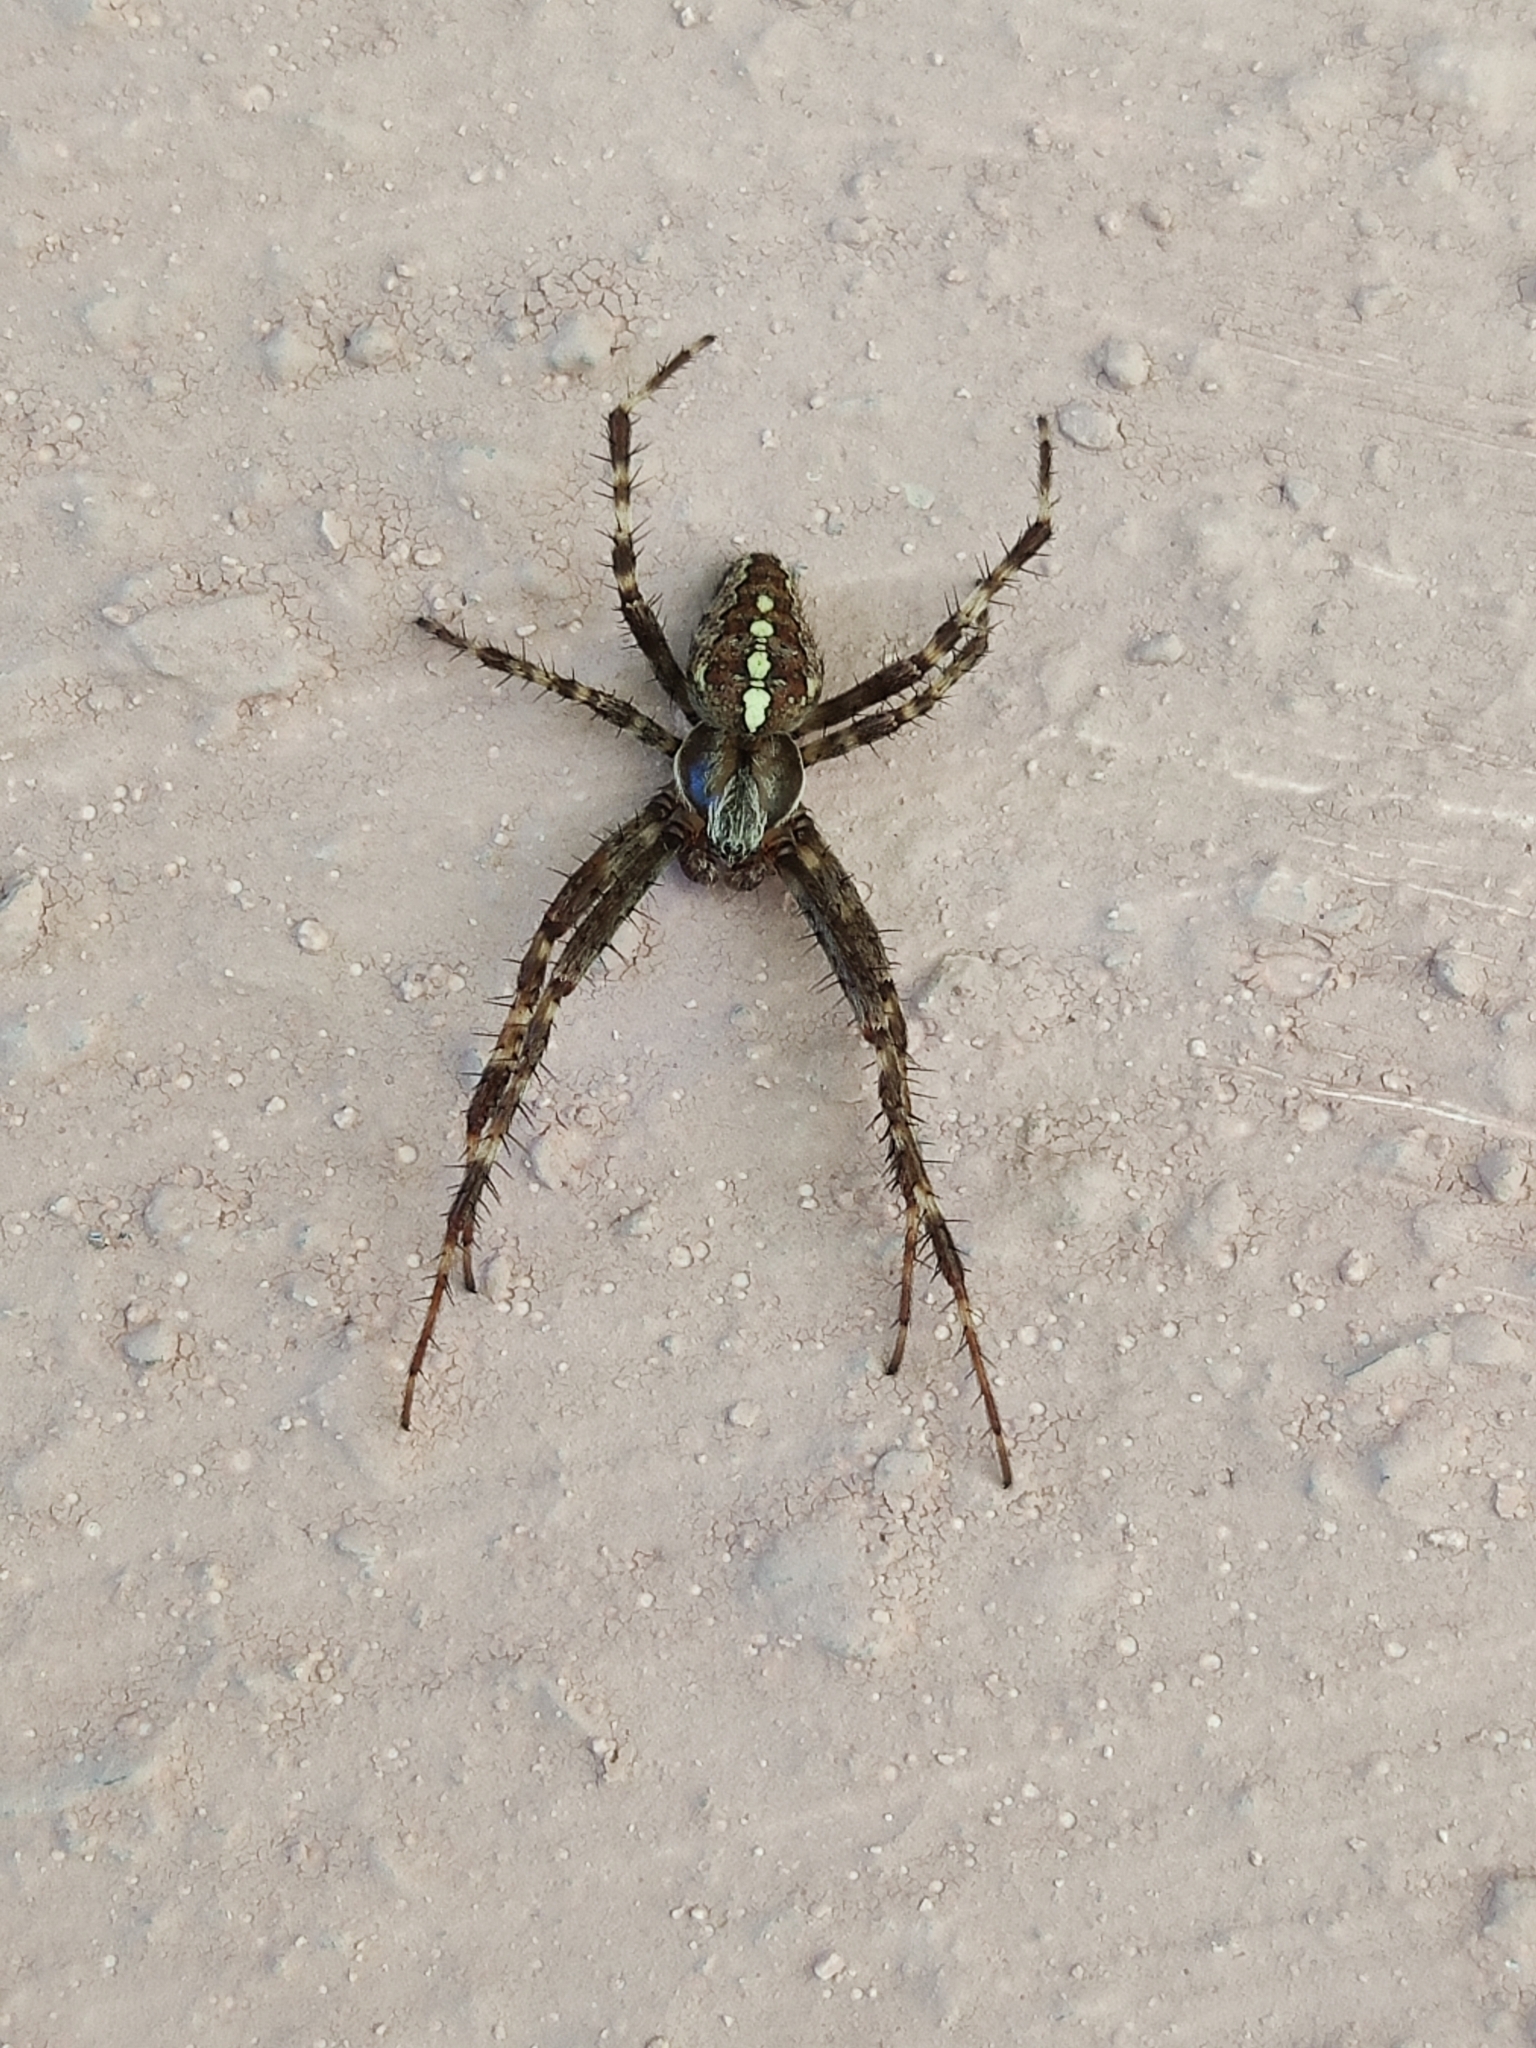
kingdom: Animalia
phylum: Arthropoda
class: Arachnida
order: Araneae
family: Araneidae
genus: Araneus
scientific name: Araneus diadematus
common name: Cross orbweaver
